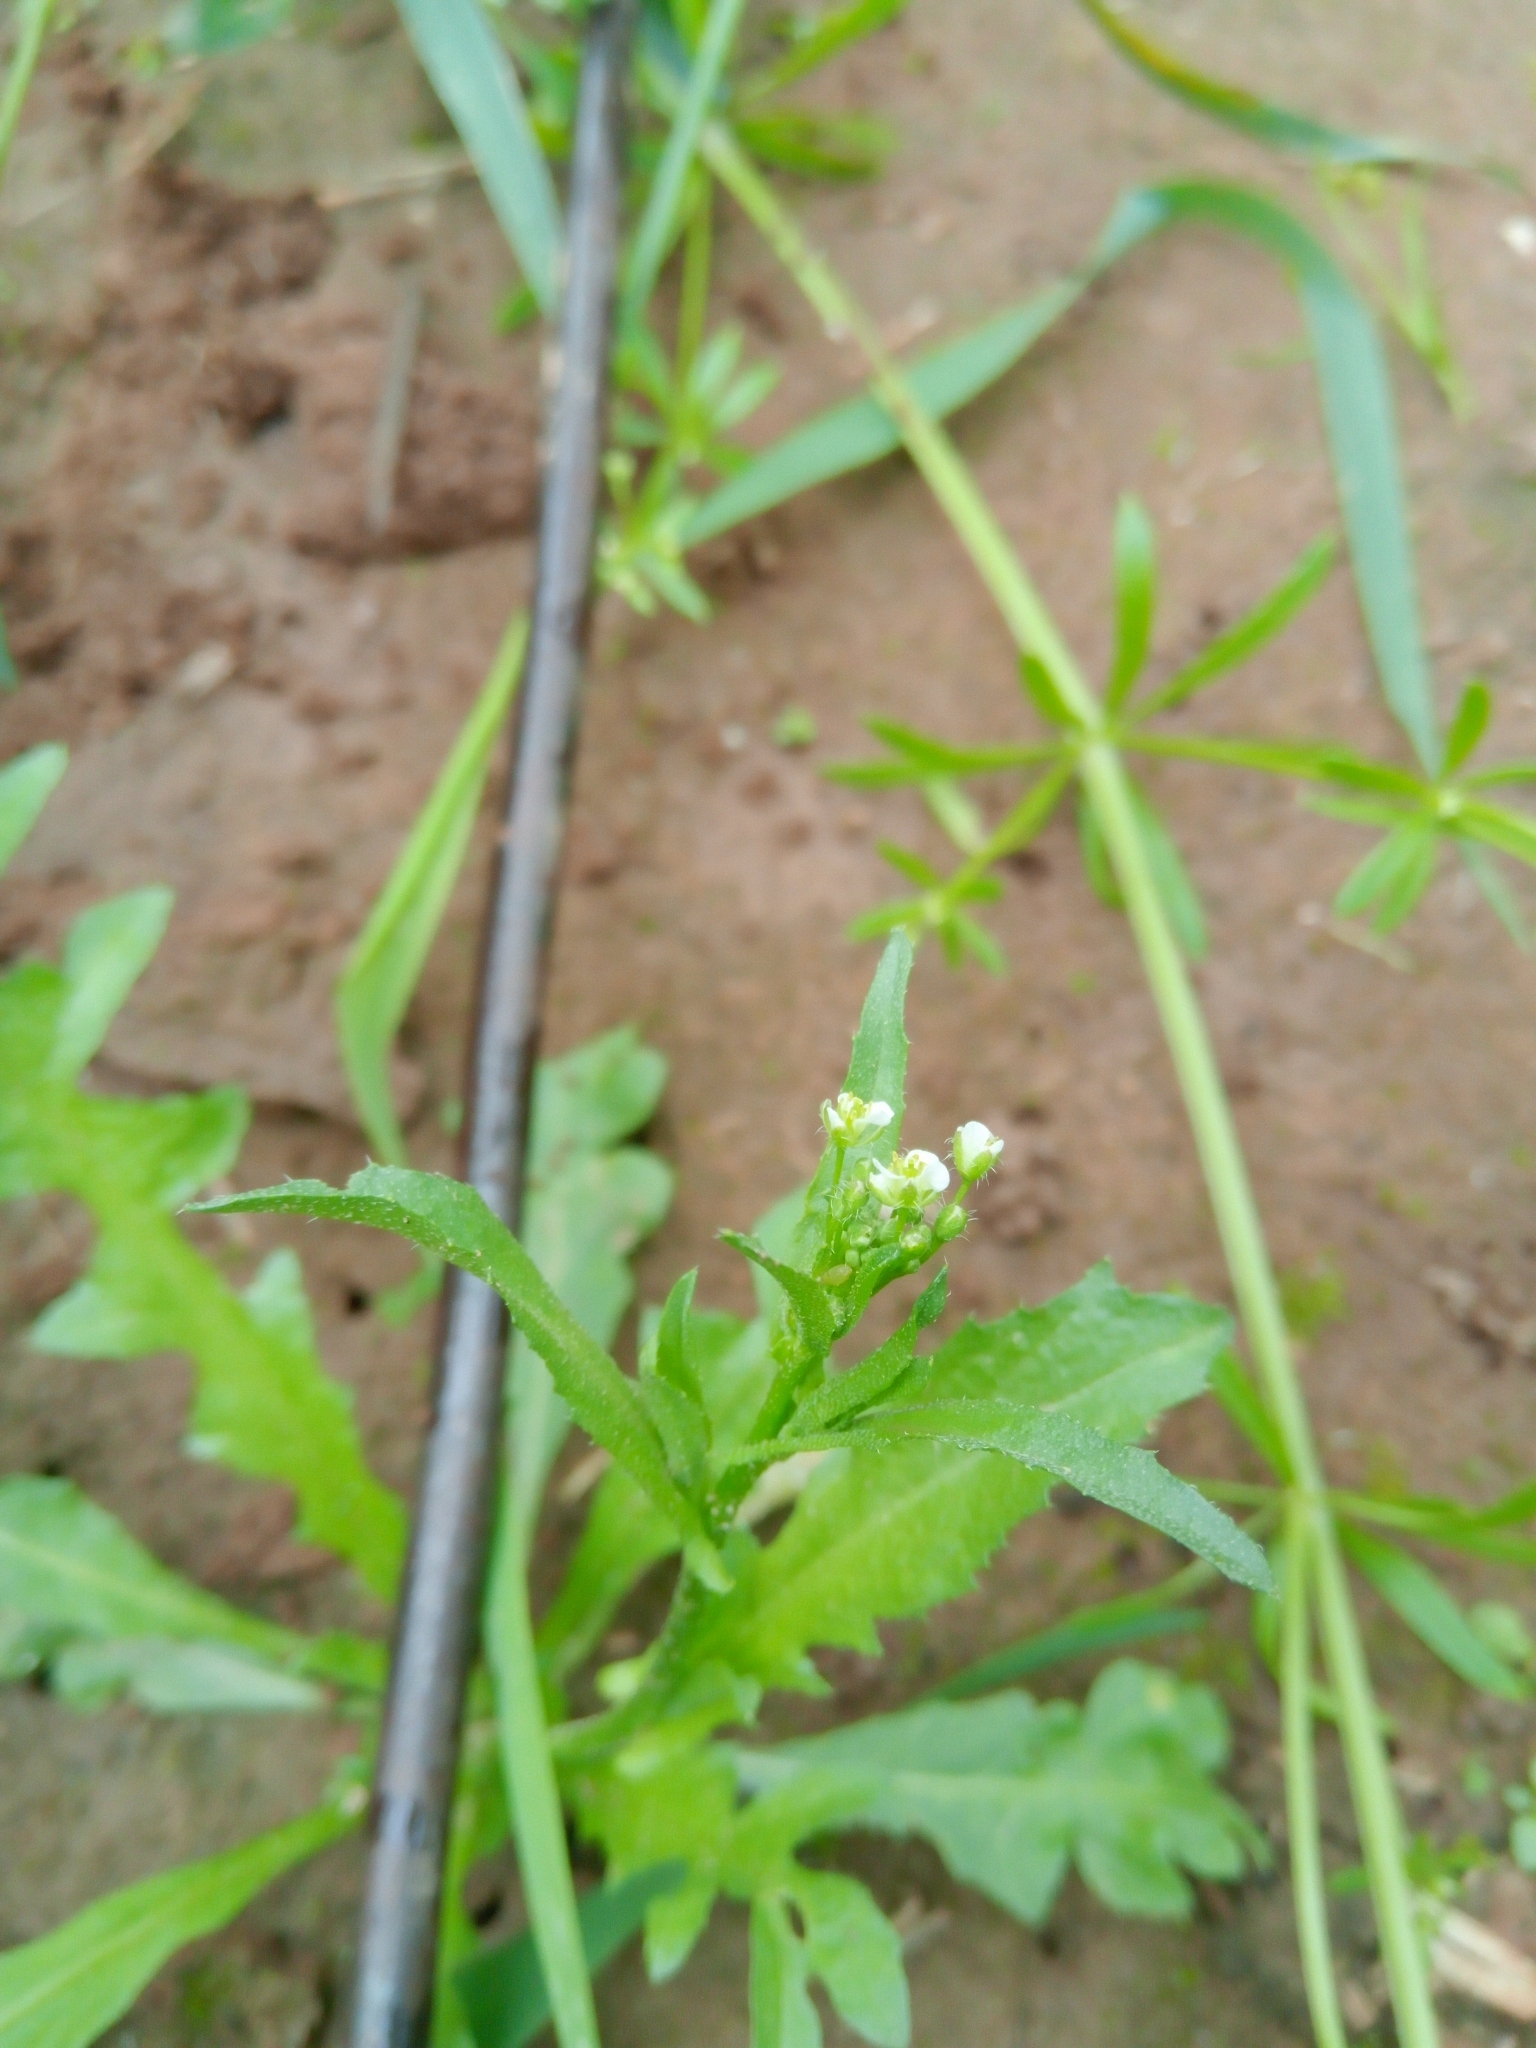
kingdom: Plantae
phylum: Tracheophyta
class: Magnoliopsida
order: Brassicales
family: Brassicaceae
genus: Capsella
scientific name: Capsella bursa-pastoris
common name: Shepherd's purse
